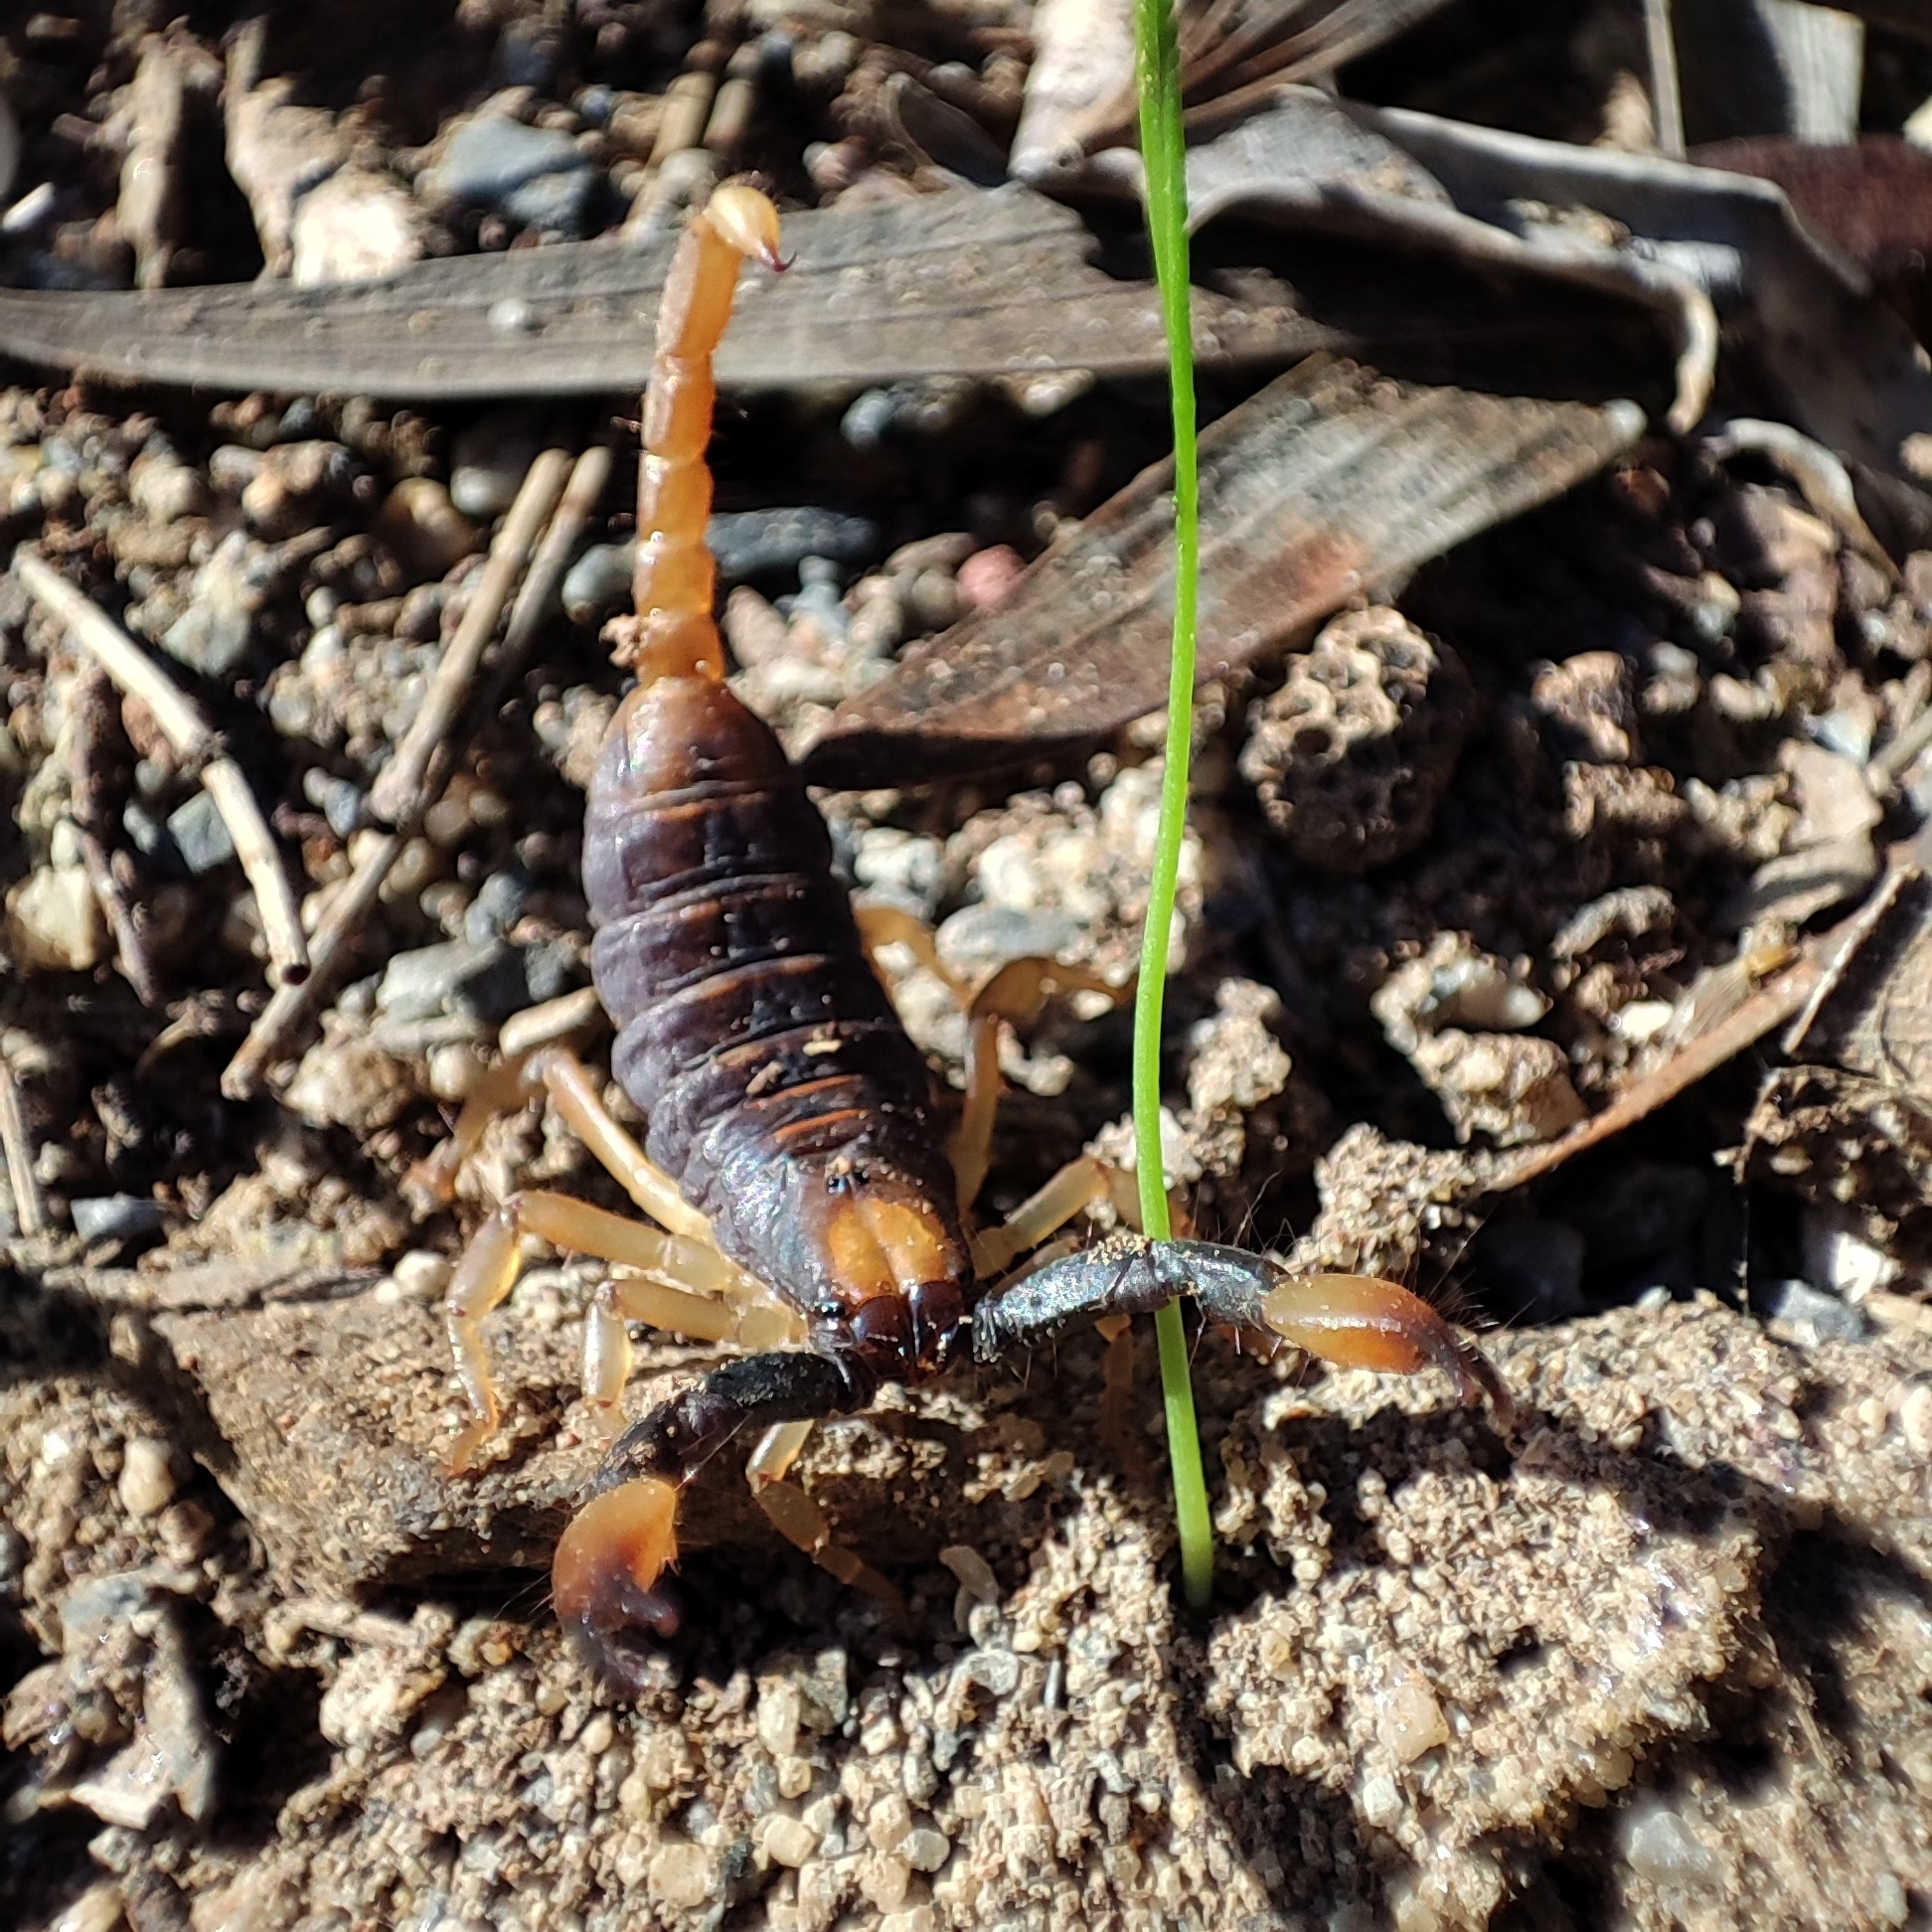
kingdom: Animalia
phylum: Arthropoda
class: Arachnida
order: Scorpiones
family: Scorpionidae
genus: Opistophthalmus
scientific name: Opistophthalmus karrooensis
